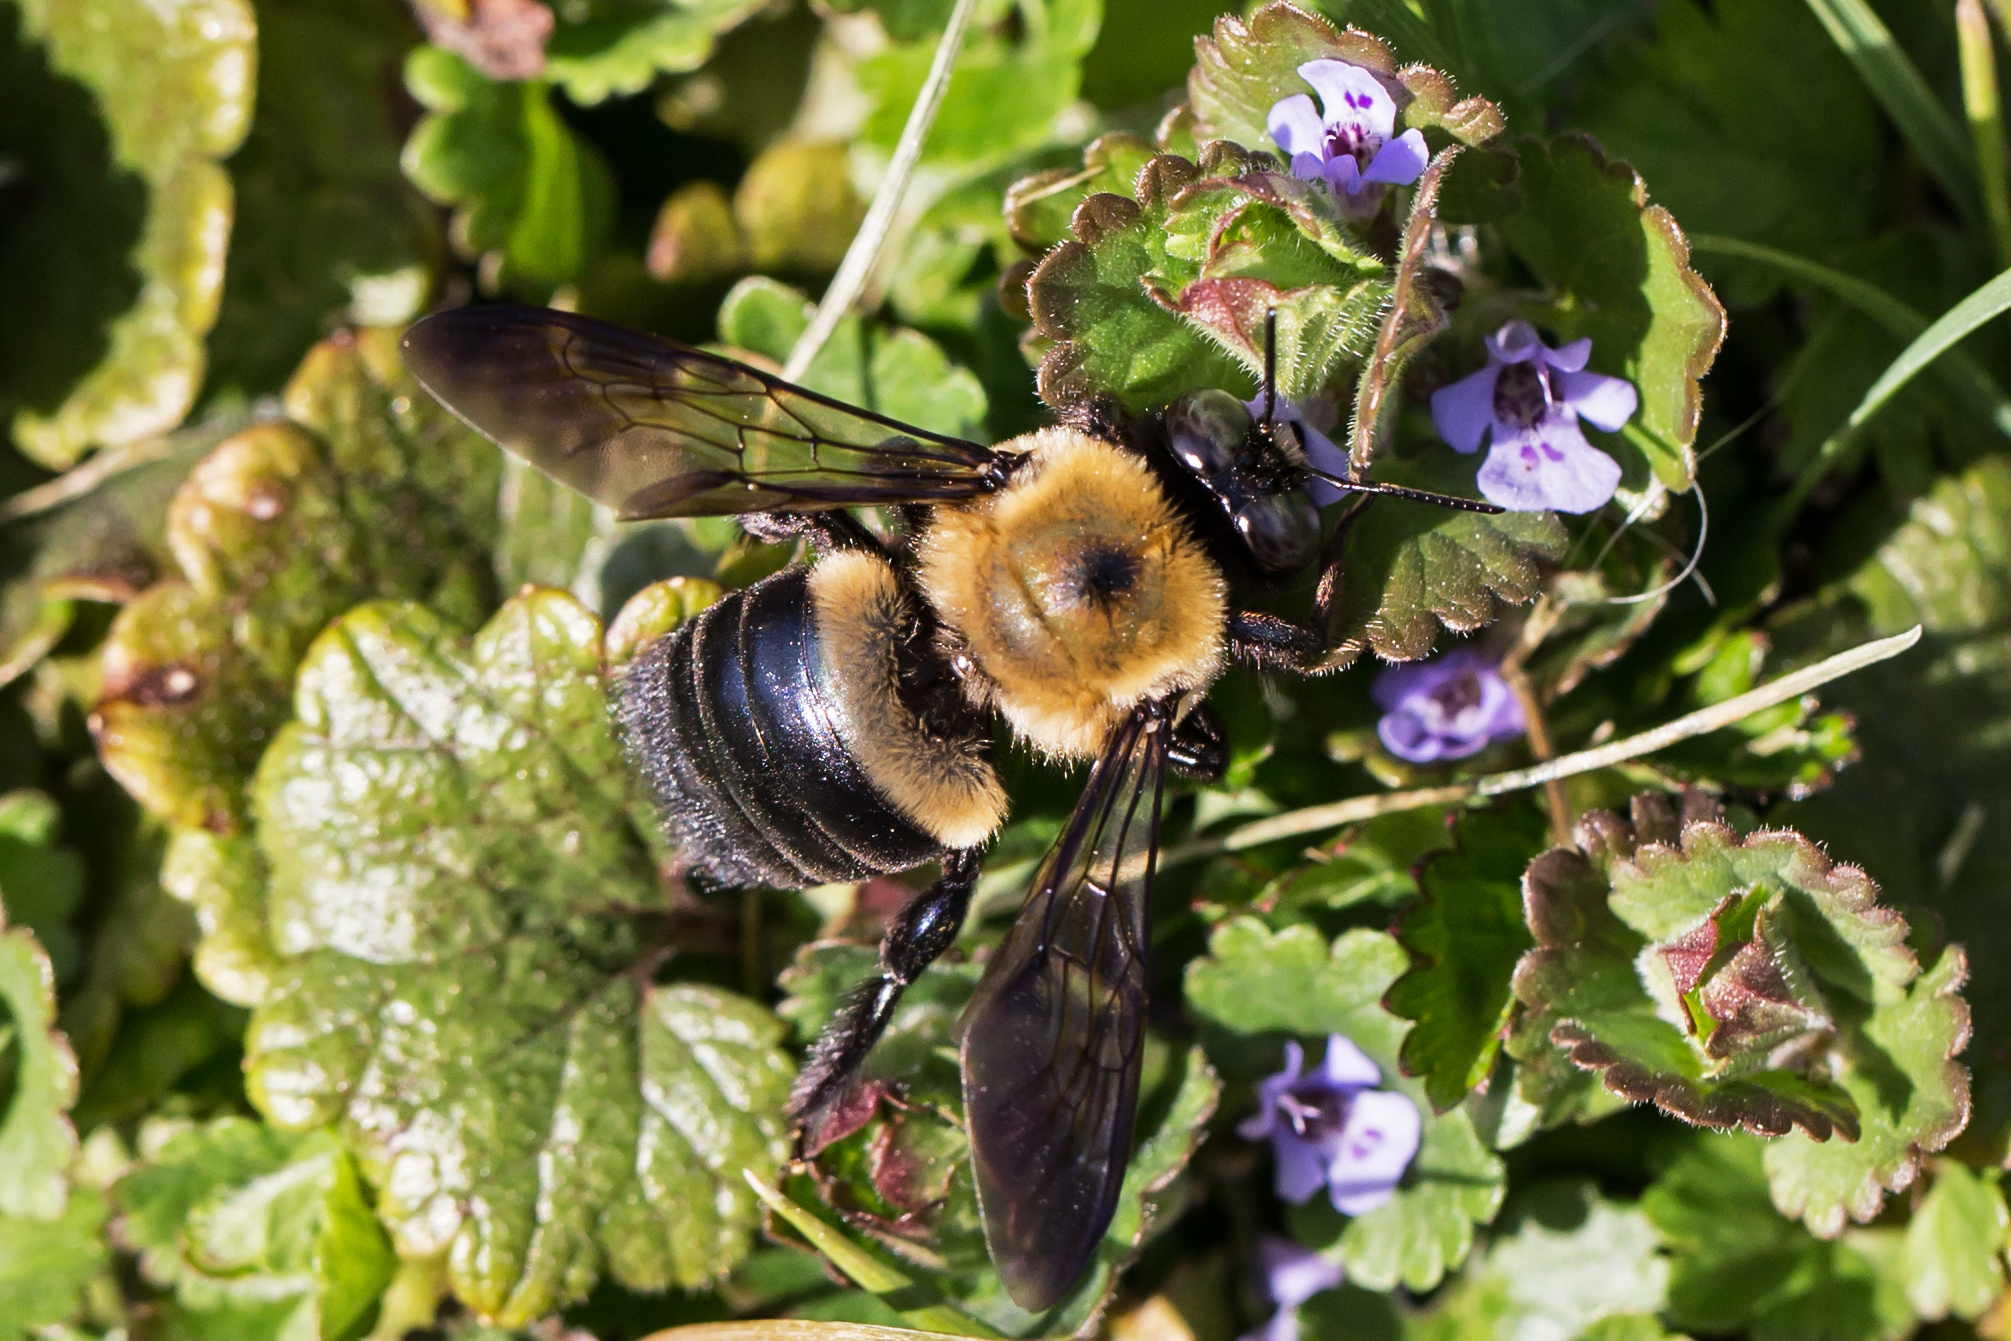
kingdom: Animalia
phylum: Arthropoda
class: Insecta
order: Hymenoptera
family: Apidae
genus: Xylocopa
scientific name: Xylocopa virginica
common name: Carpenter bee
